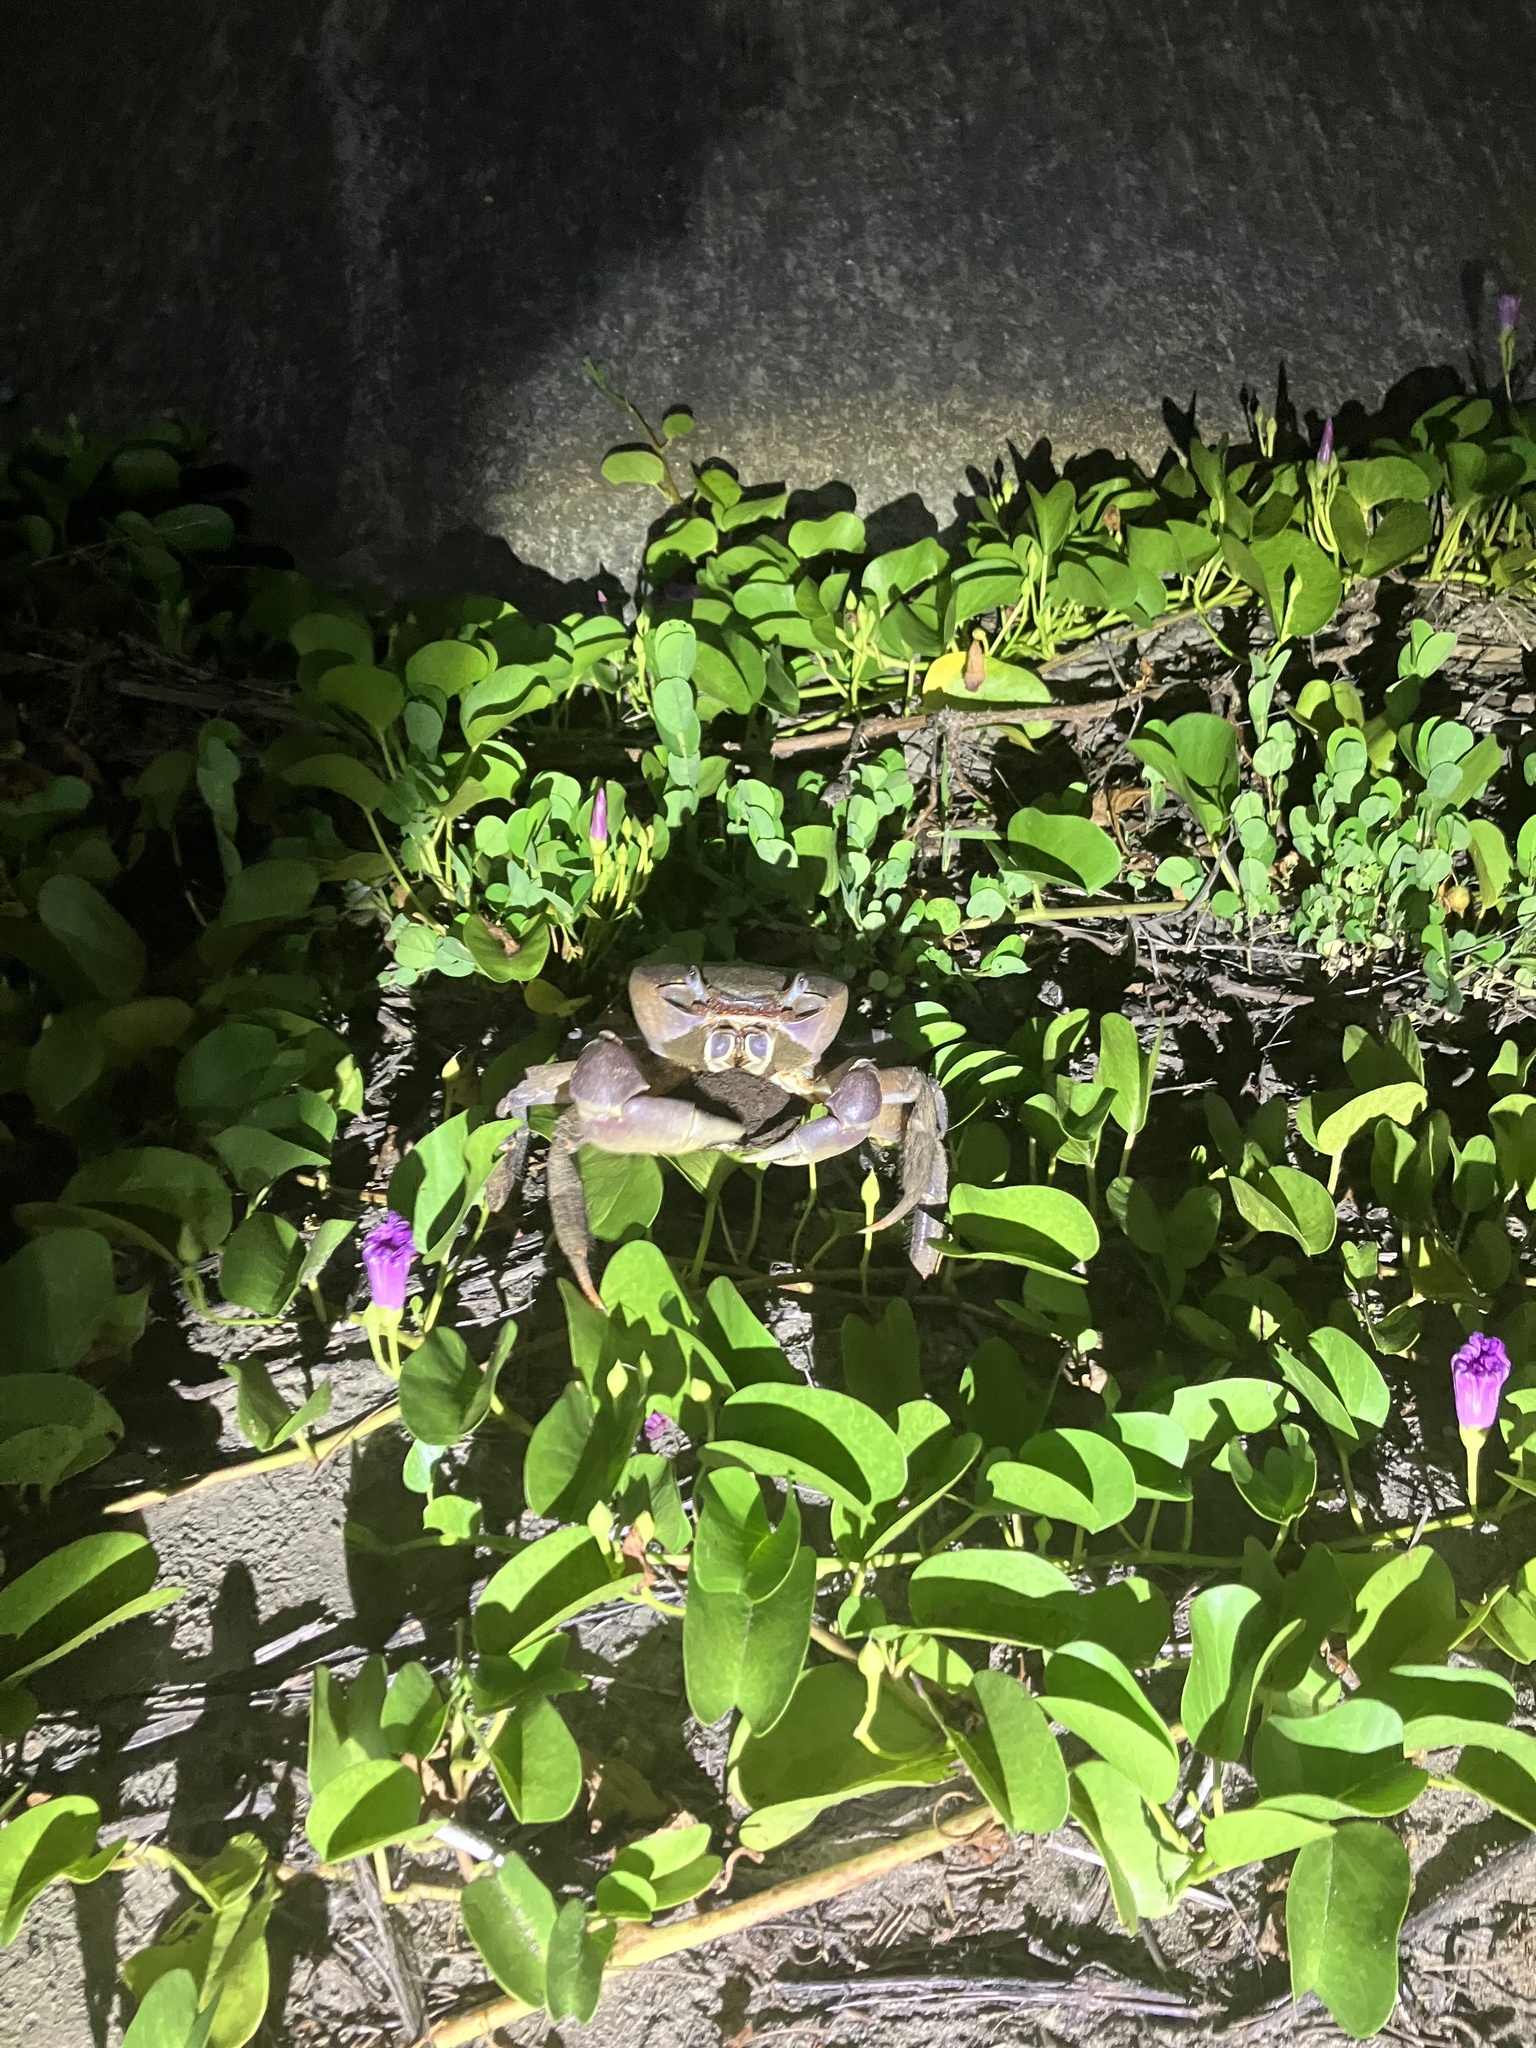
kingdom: Animalia
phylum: Arthropoda
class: Malacostraca
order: Decapoda
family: Gecarcinidae
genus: Cardisoma
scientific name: Cardisoma carnifex
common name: Brown land crab
